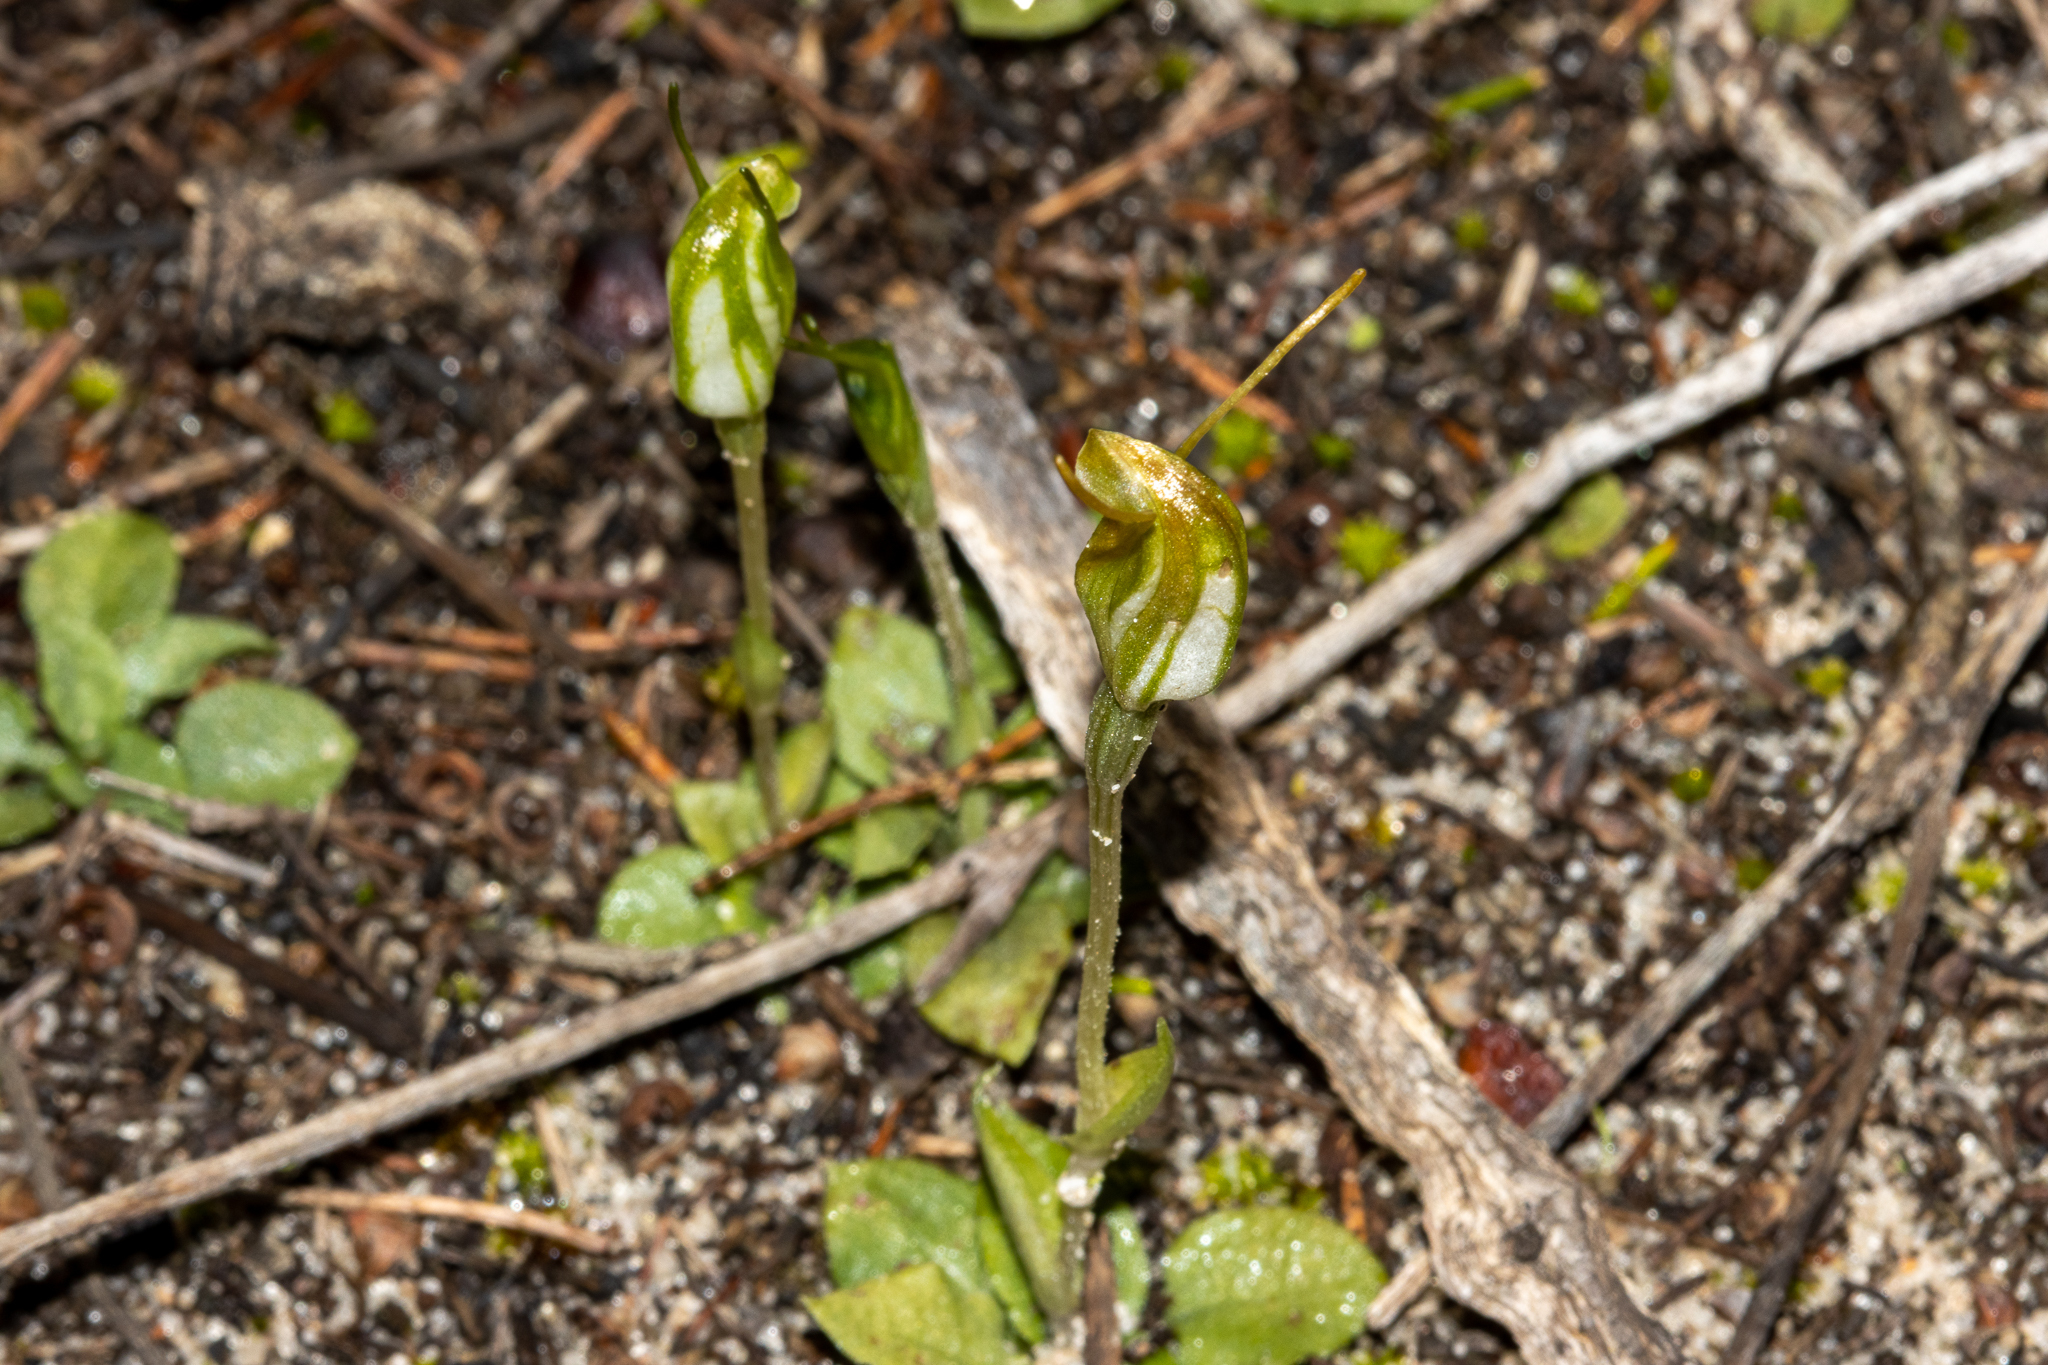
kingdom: Plantae
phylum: Tracheophyta
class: Liliopsida
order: Asparagales
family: Orchidaceae
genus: Pterostylis
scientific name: Pterostylis nana
